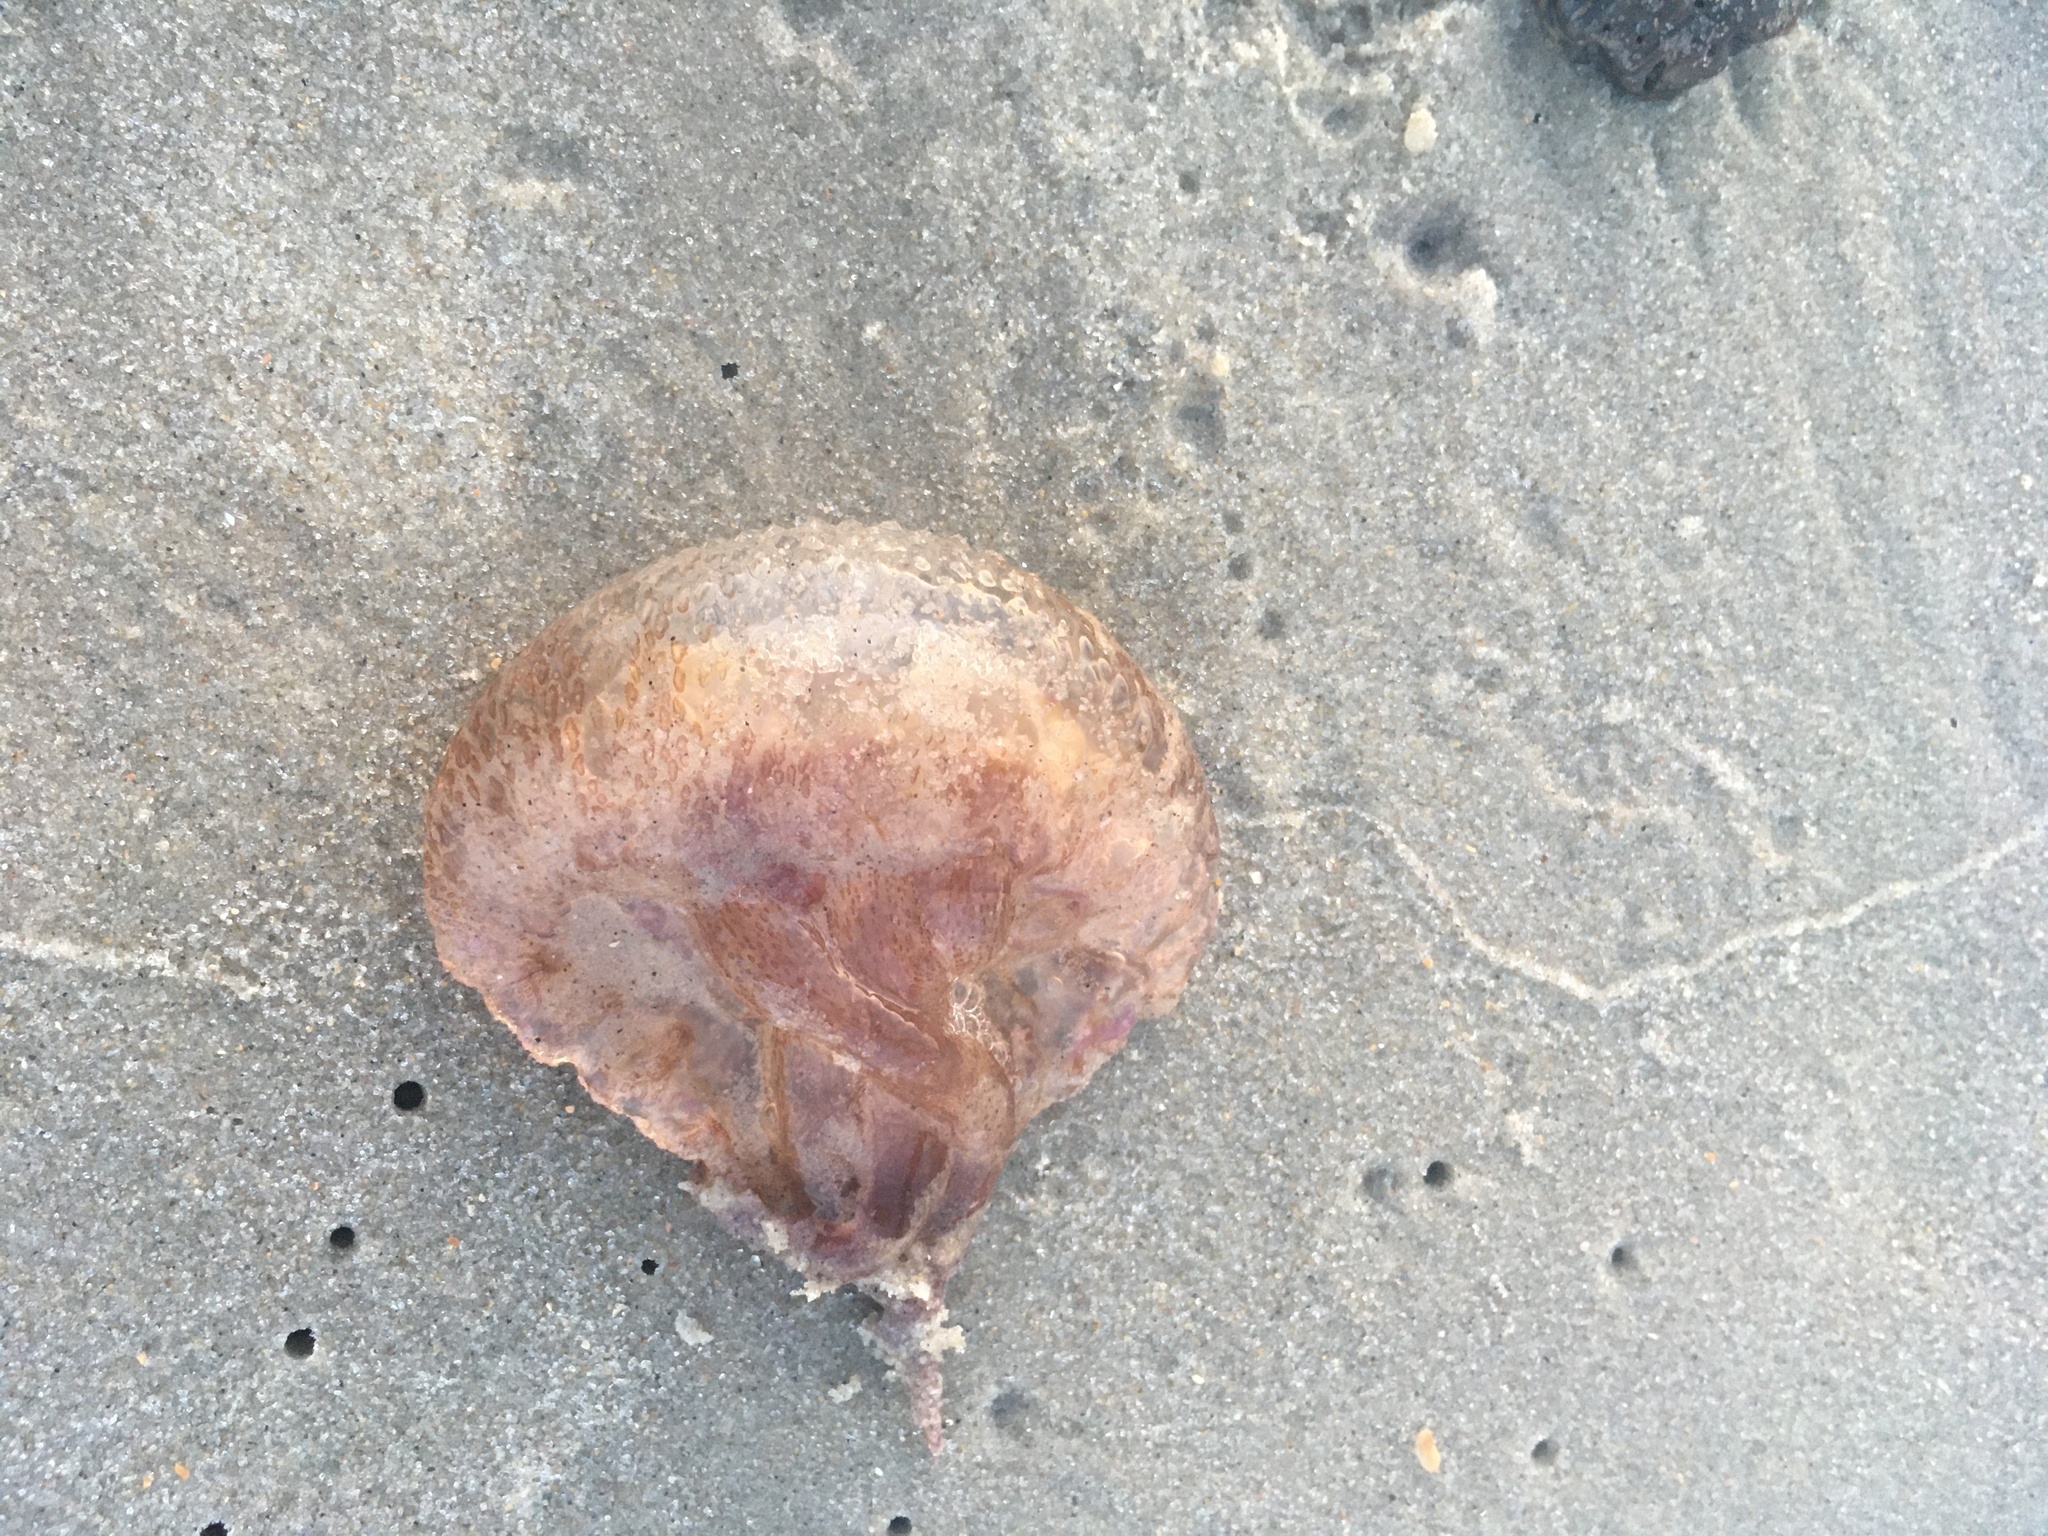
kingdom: Animalia
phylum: Cnidaria
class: Scyphozoa
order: Semaeostomeae
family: Pelagiidae
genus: Pelagia
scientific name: Pelagia noctiluca
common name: Mauve stinger
